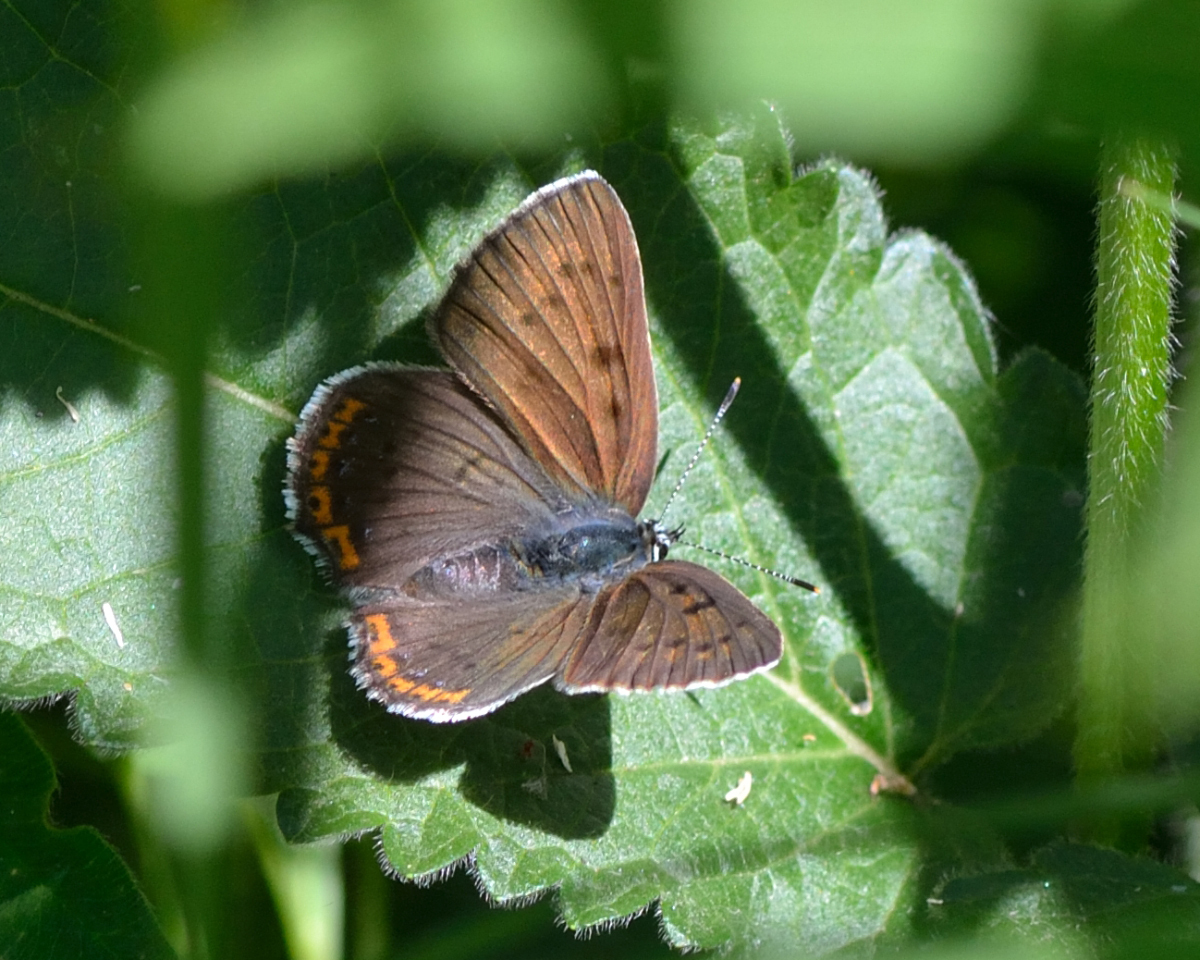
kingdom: Animalia
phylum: Arthropoda
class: Insecta
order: Lepidoptera
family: Lycaenidae
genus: Lycaena
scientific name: Lycaena alciphron
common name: Purple-shot copper
